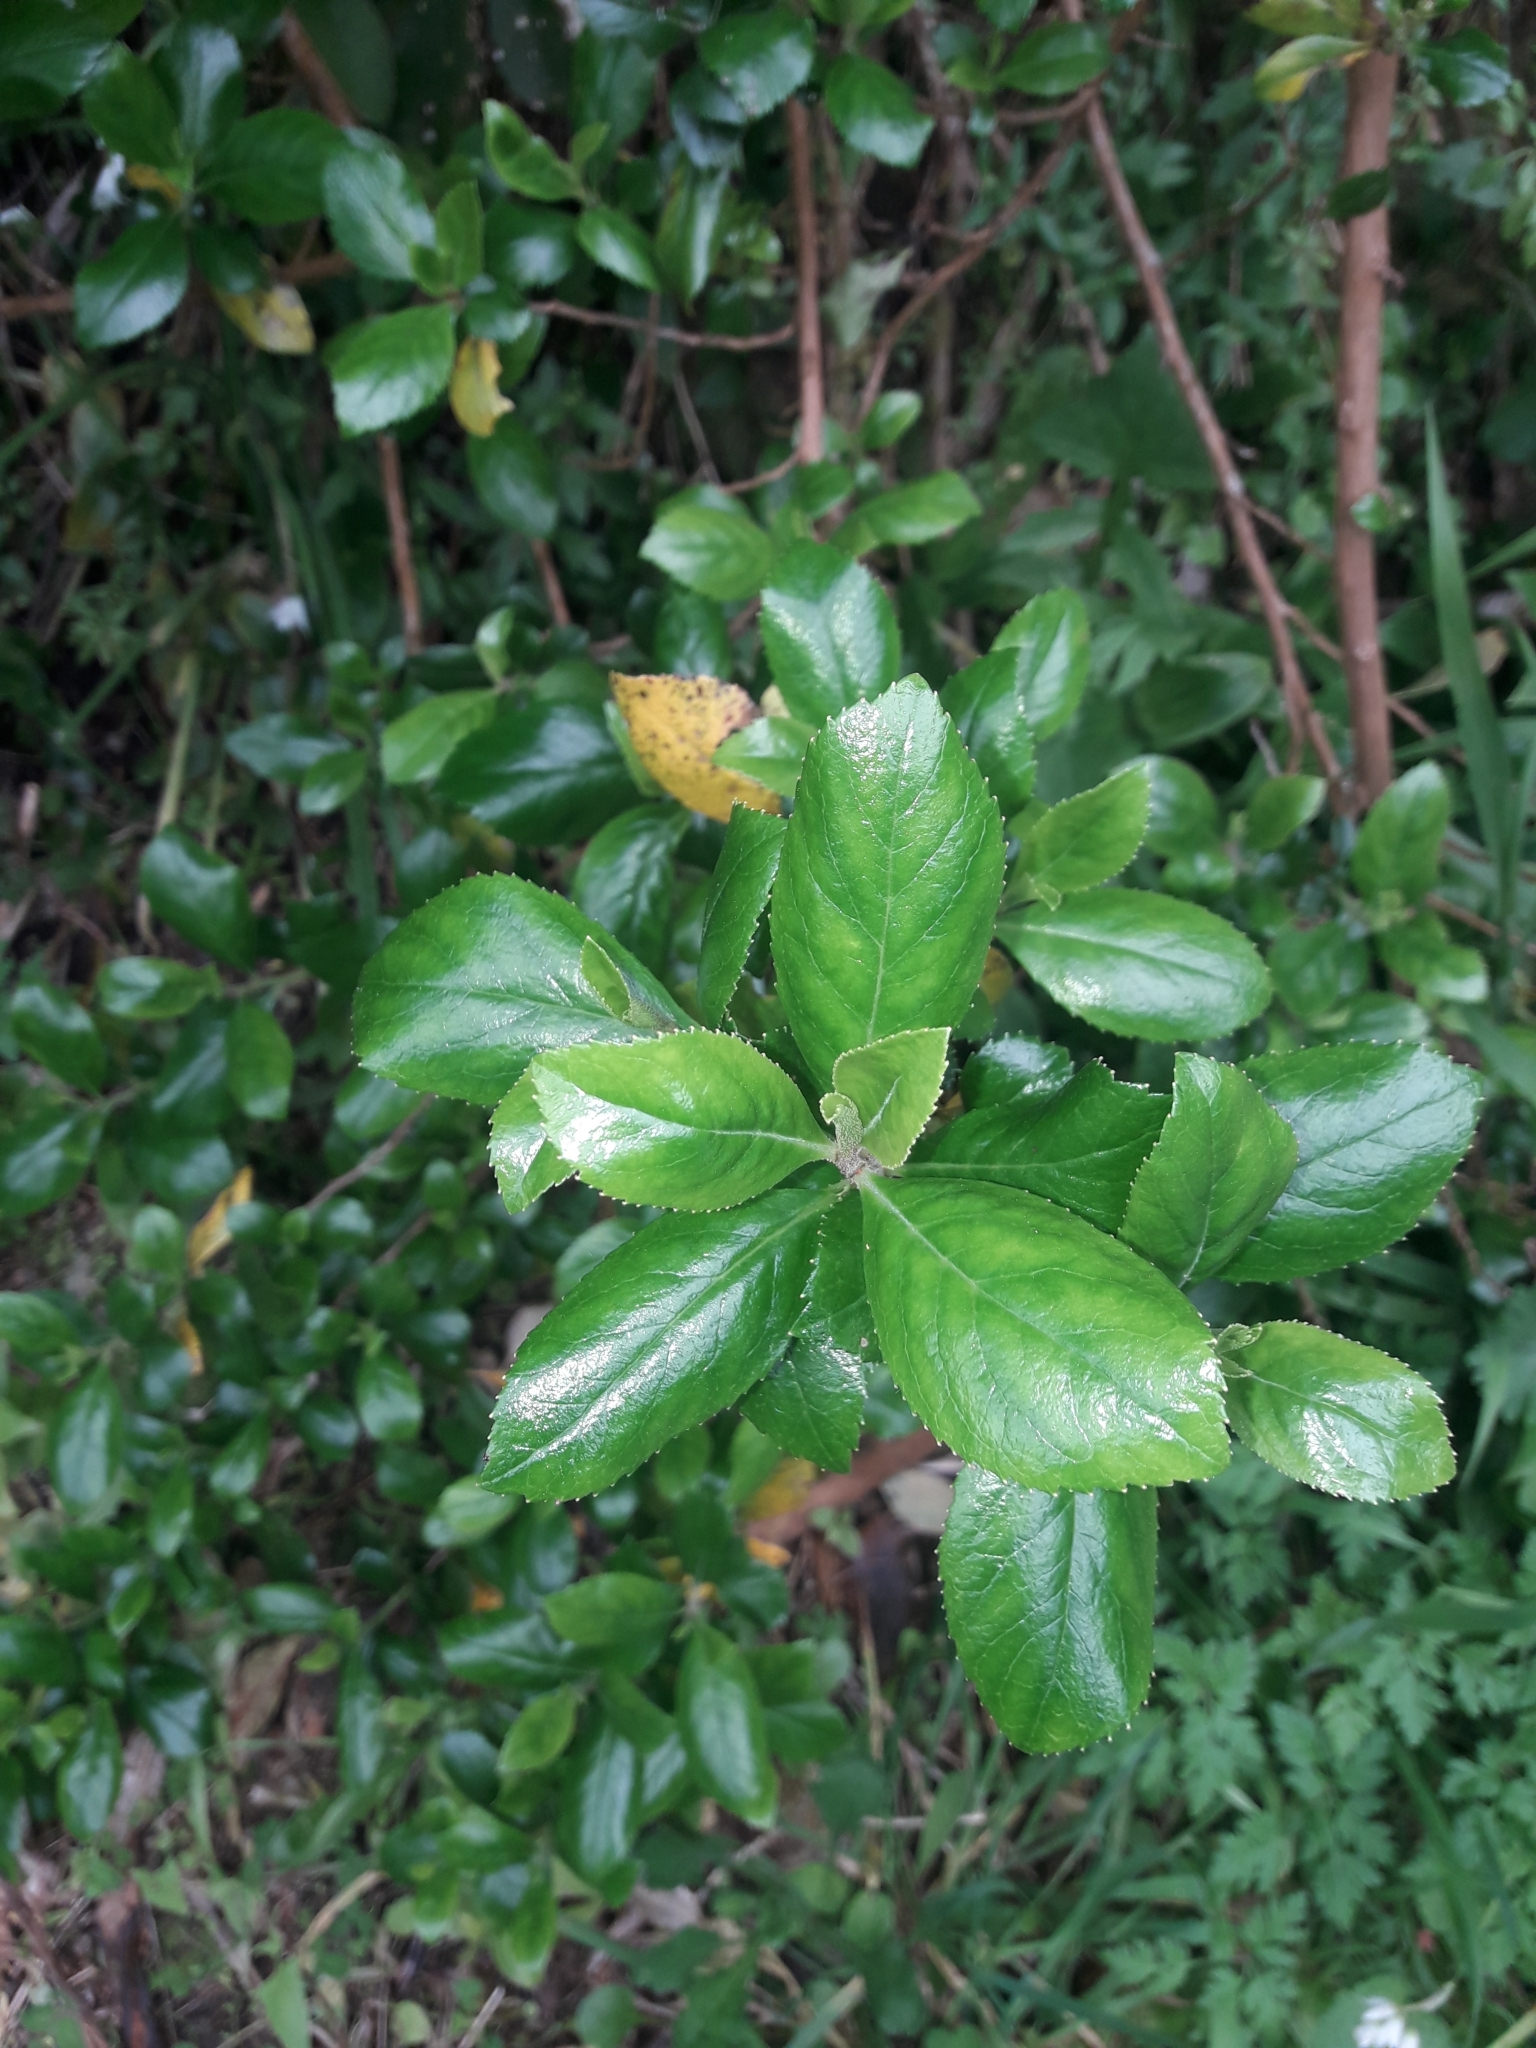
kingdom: Plantae
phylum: Tracheophyta
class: Magnoliopsida
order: Escalloniales
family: Escalloniaceae
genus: Escallonia
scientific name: Escallonia rubra
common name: Redclaws
